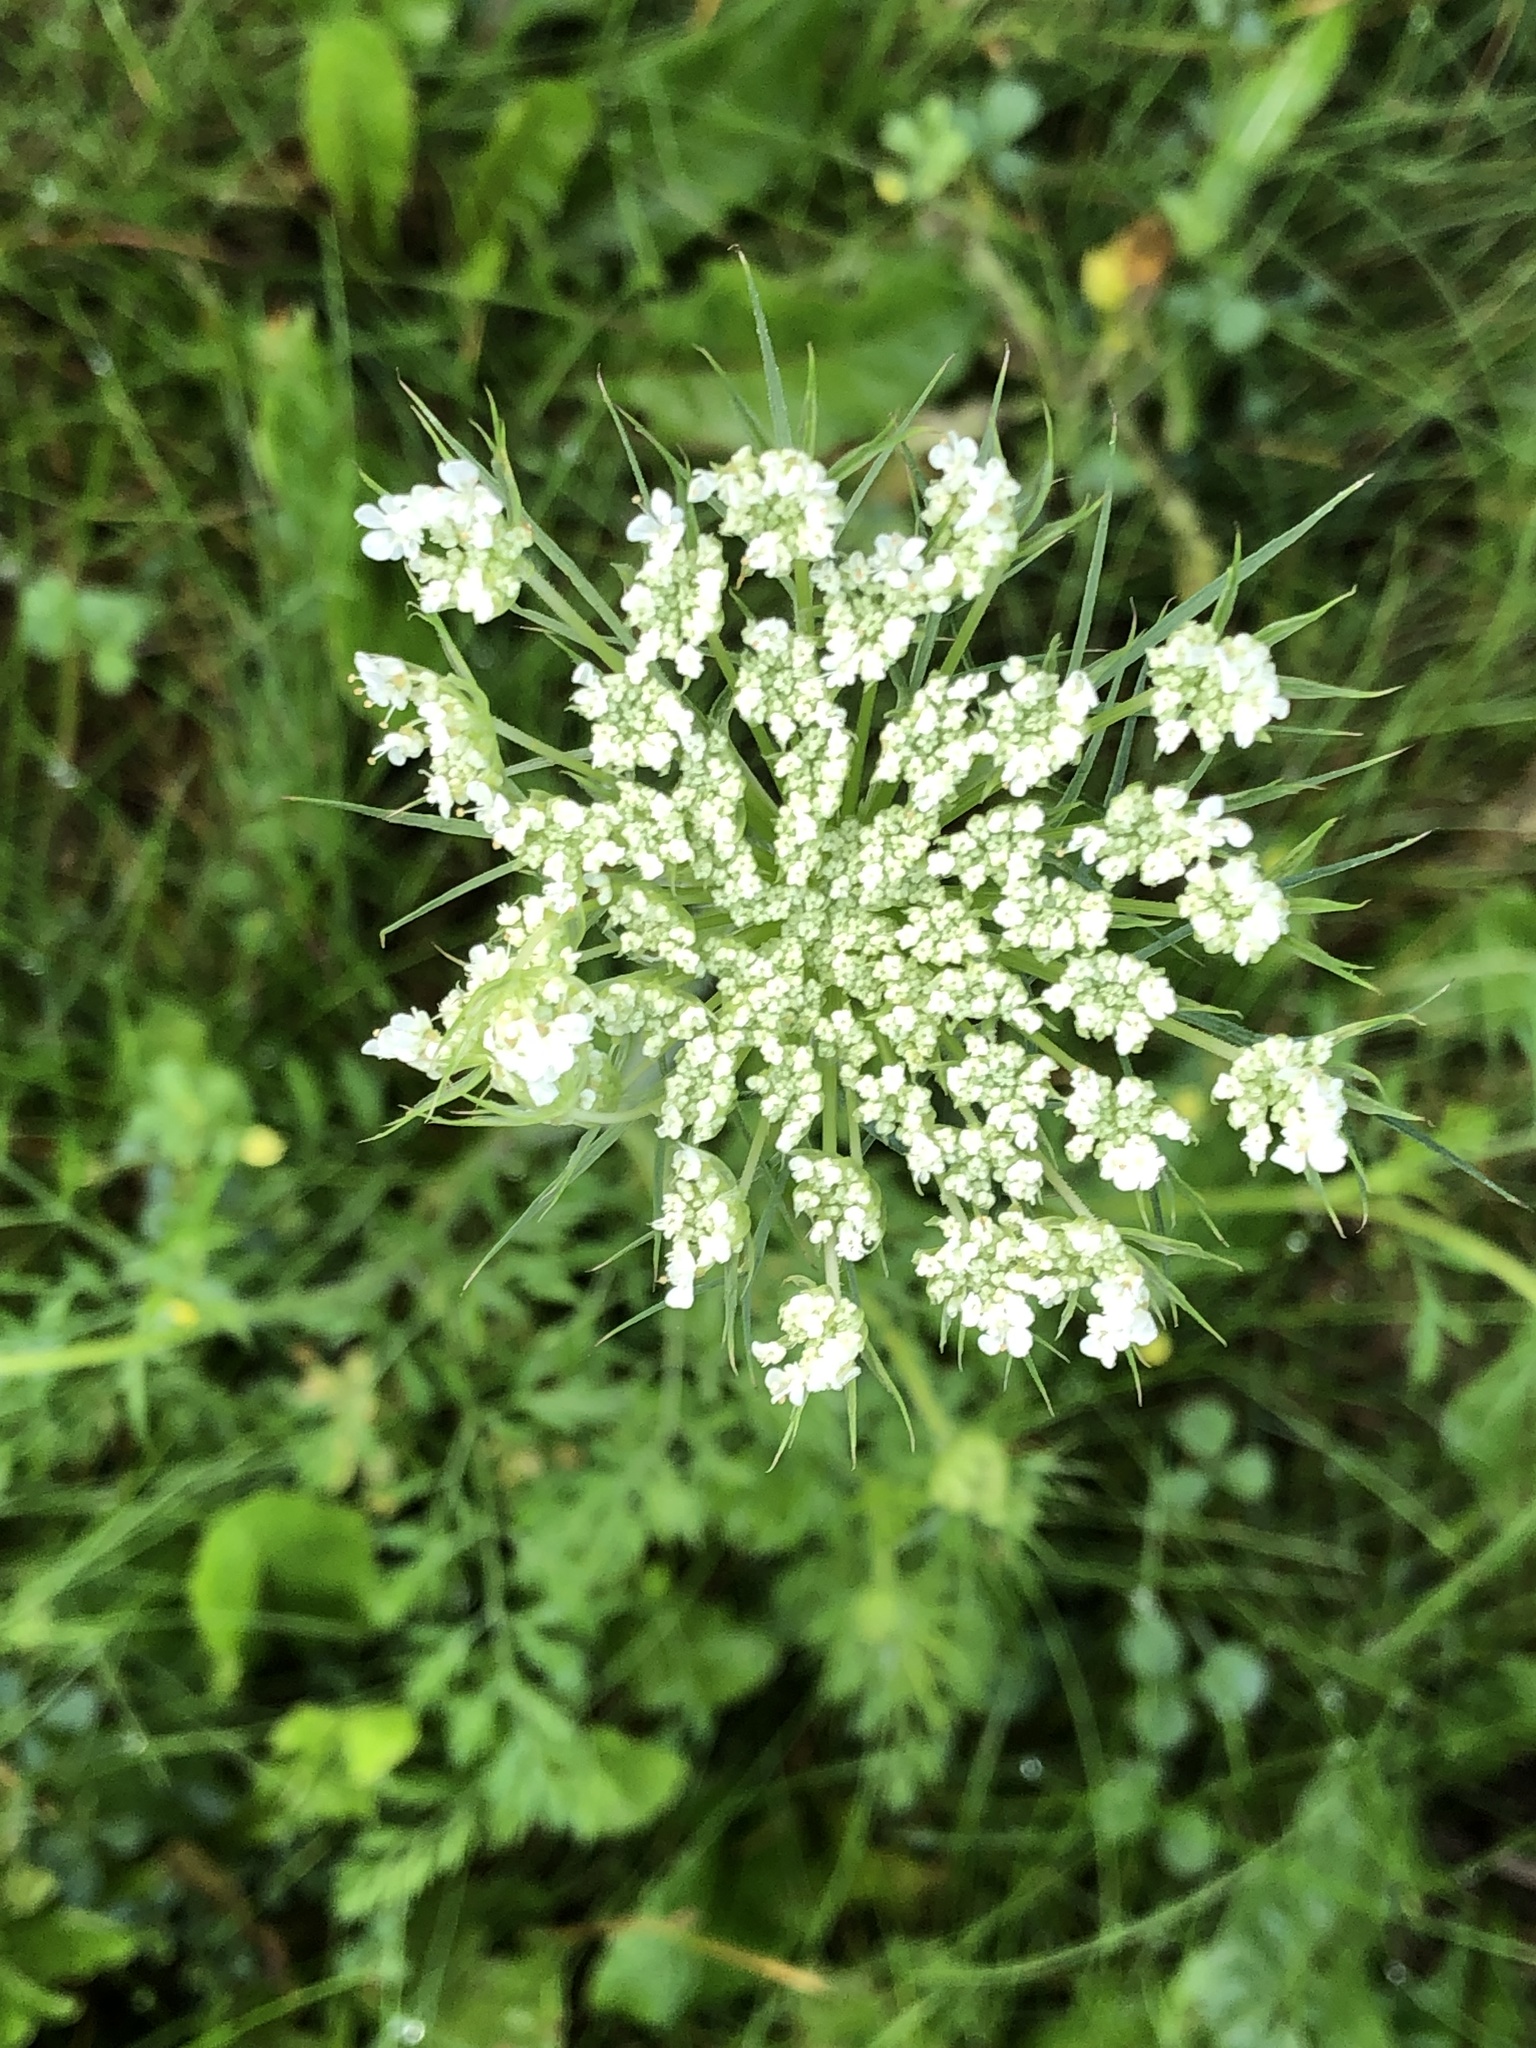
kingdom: Plantae
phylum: Tracheophyta
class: Magnoliopsida
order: Apiales
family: Apiaceae
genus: Daucus
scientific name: Daucus carota
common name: Wild carrot
